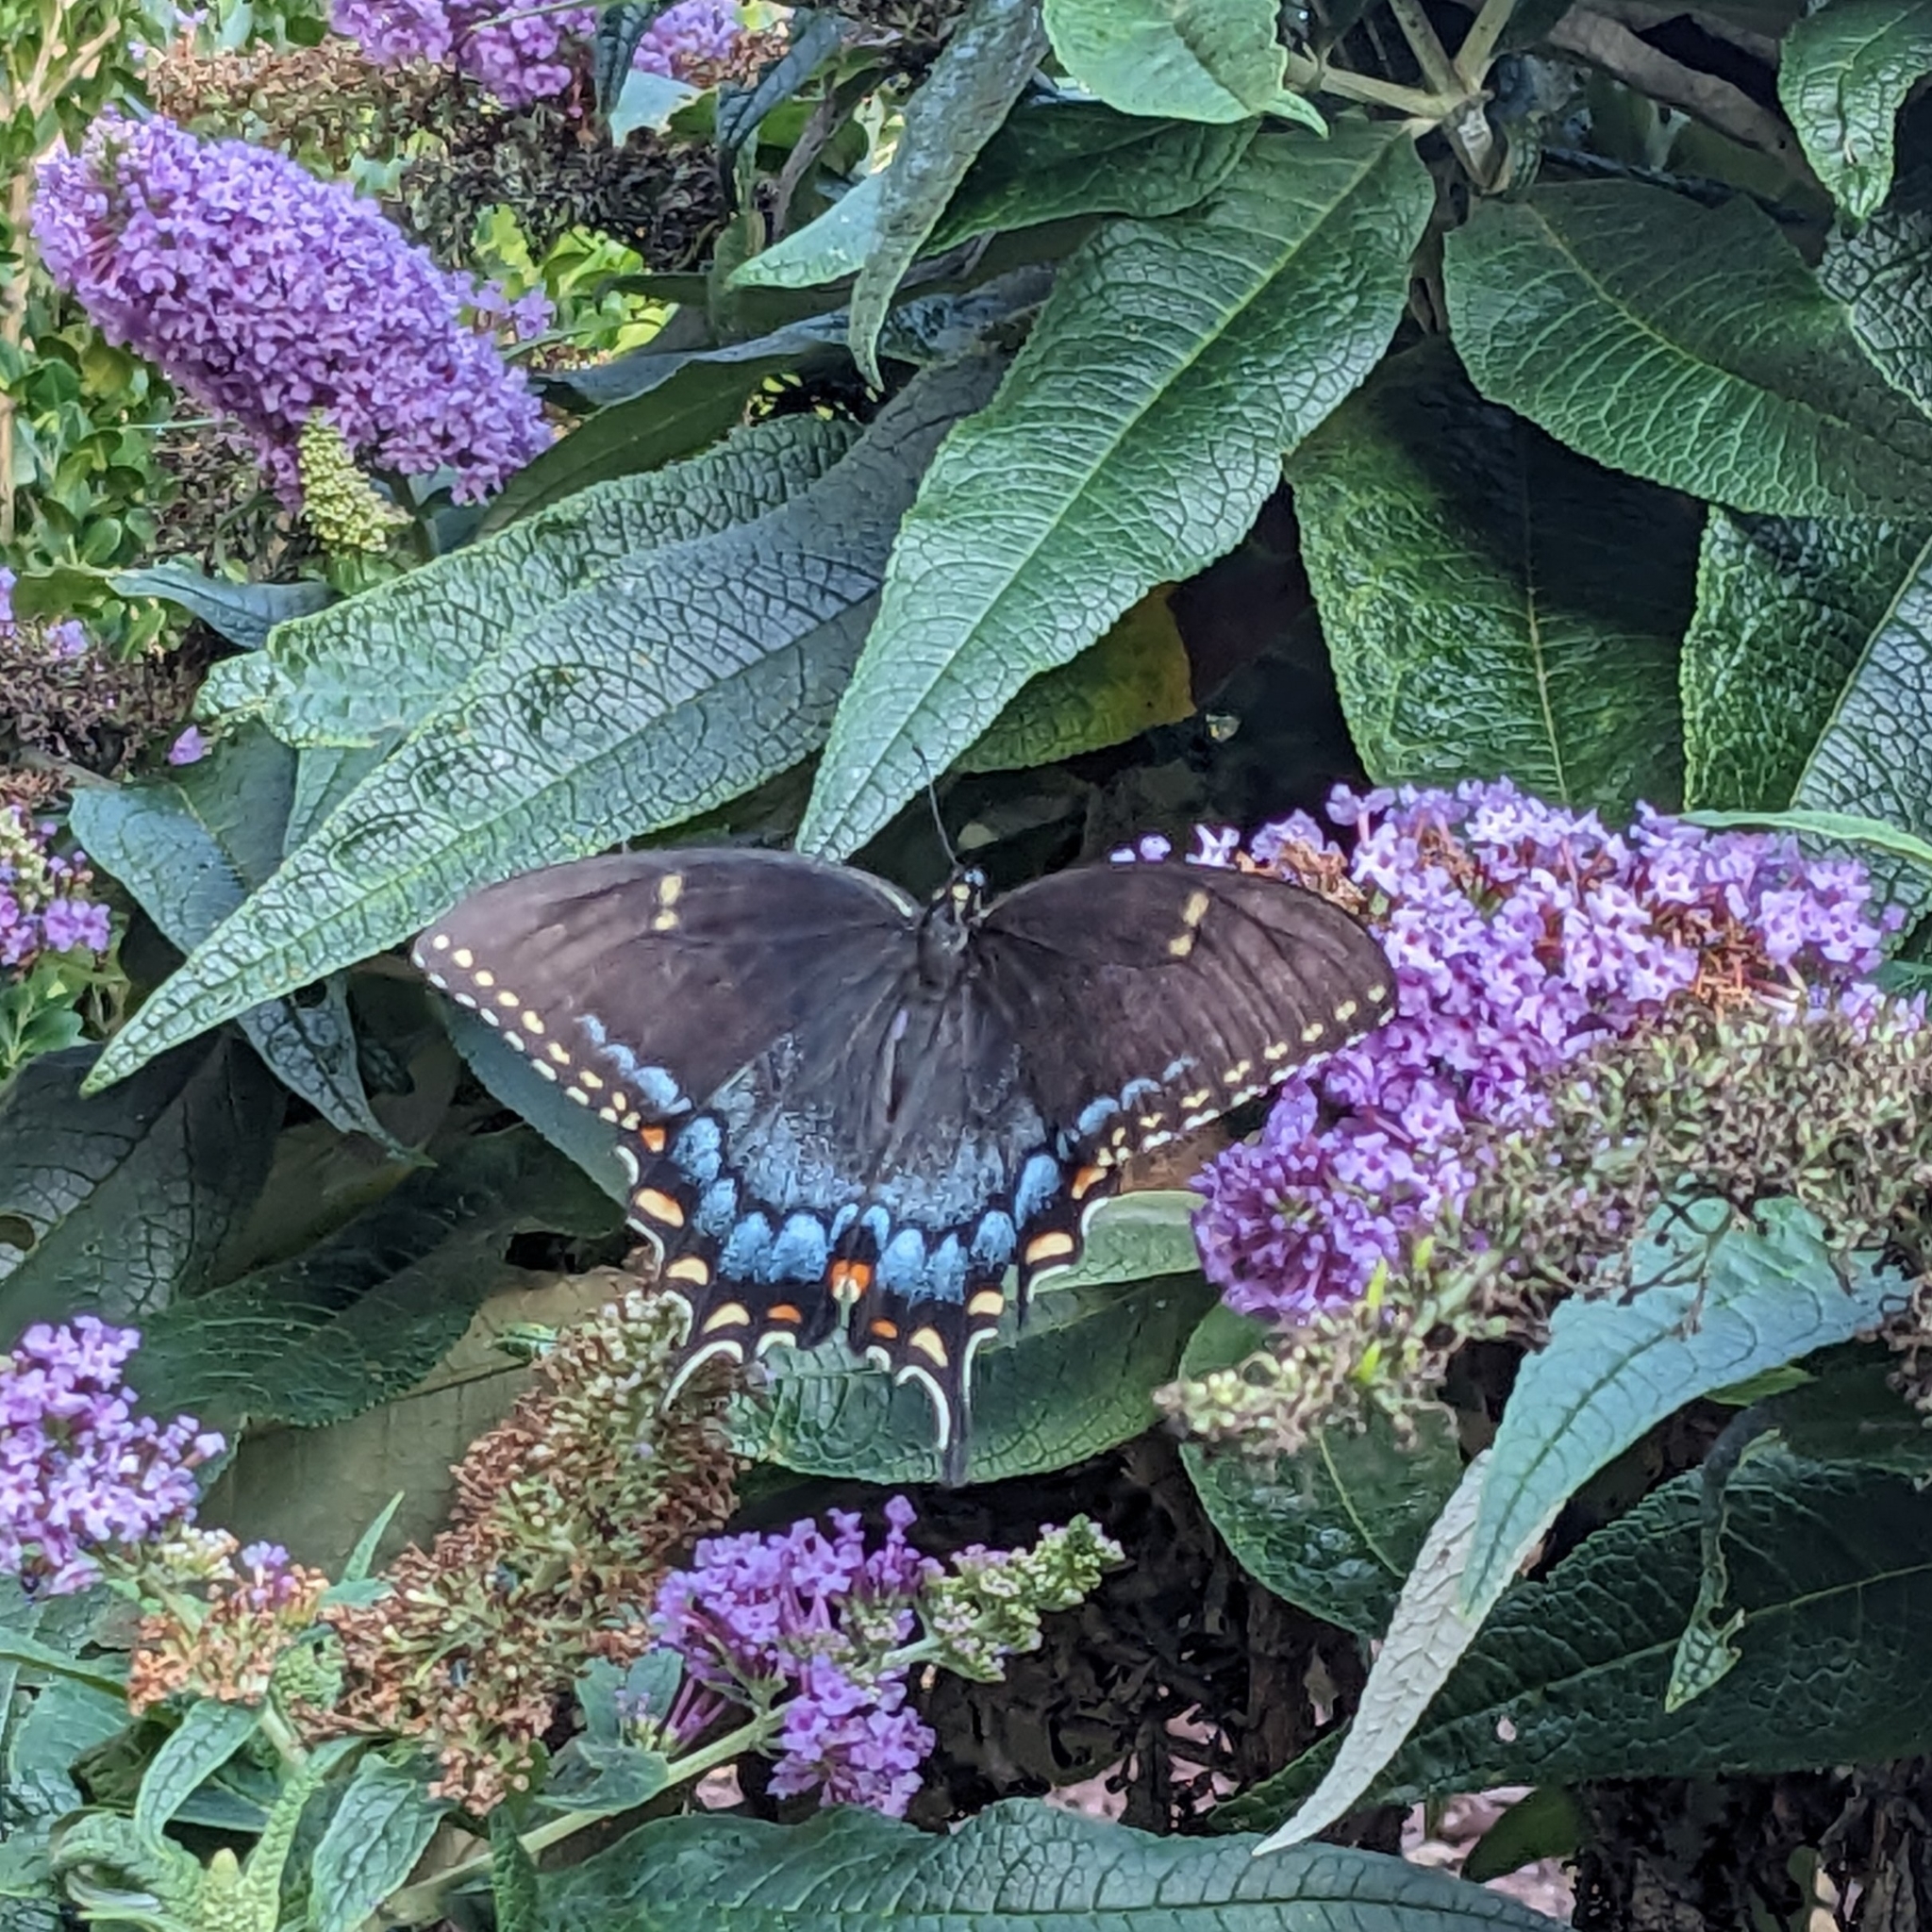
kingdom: Animalia
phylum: Arthropoda
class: Insecta
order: Lepidoptera
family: Papilionidae
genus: Papilio
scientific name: Papilio glaucus
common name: Tiger swallowtail
